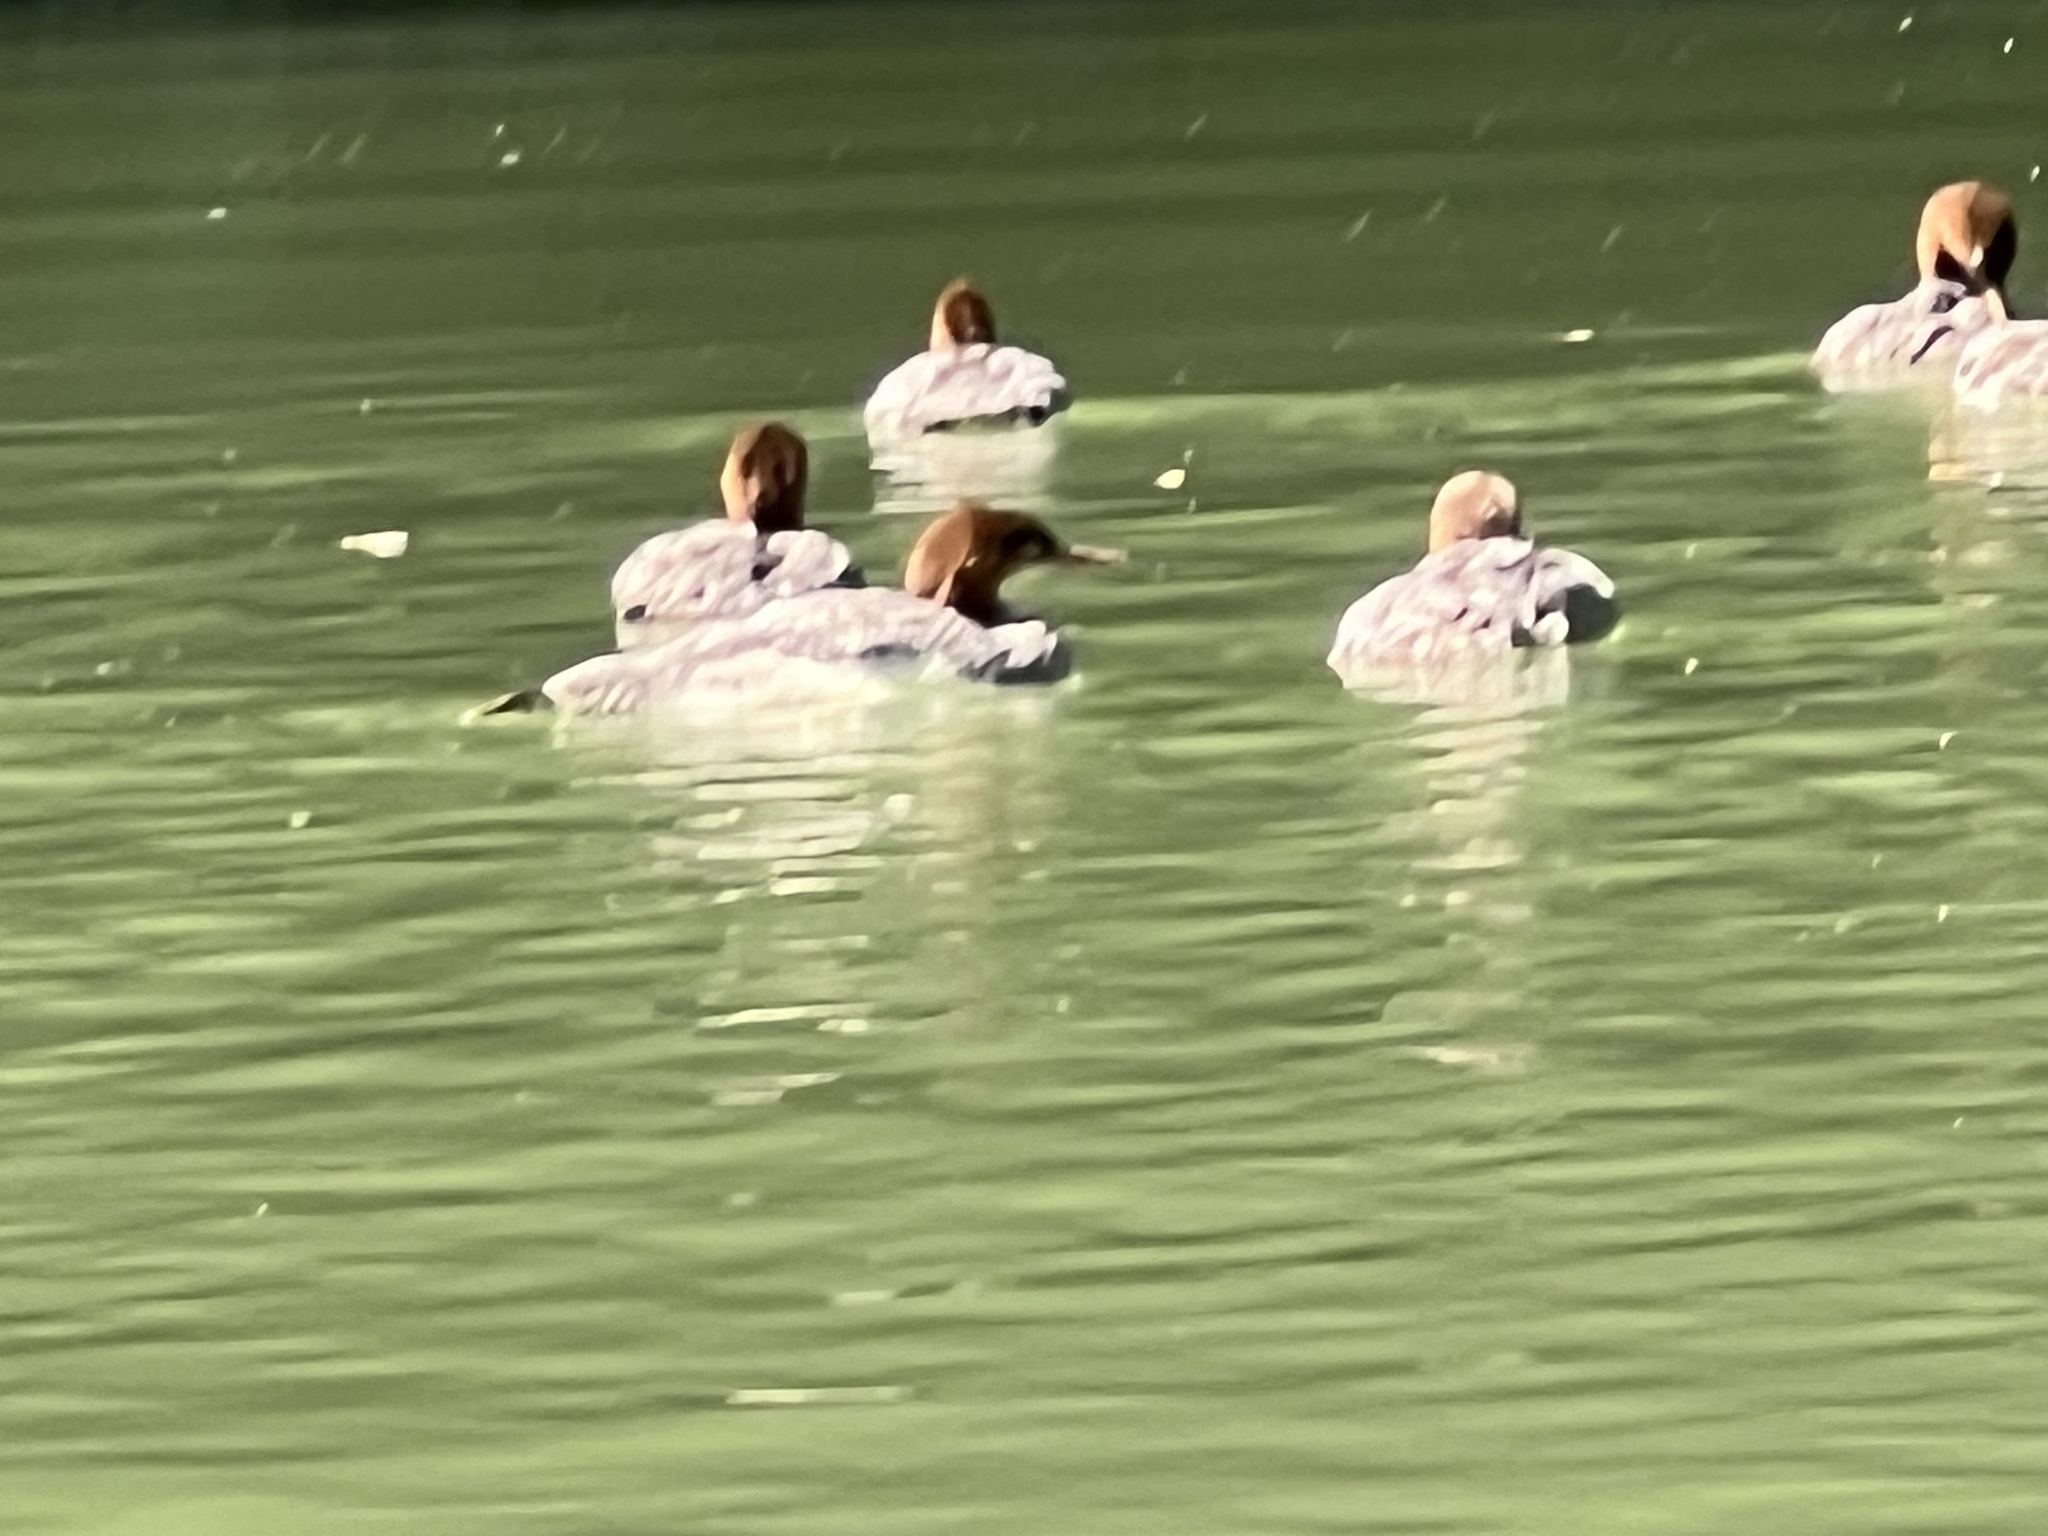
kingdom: Animalia
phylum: Chordata
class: Aves
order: Anseriformes
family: Anatidae
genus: Mergus
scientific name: Mergus merganser
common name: Common merganser
